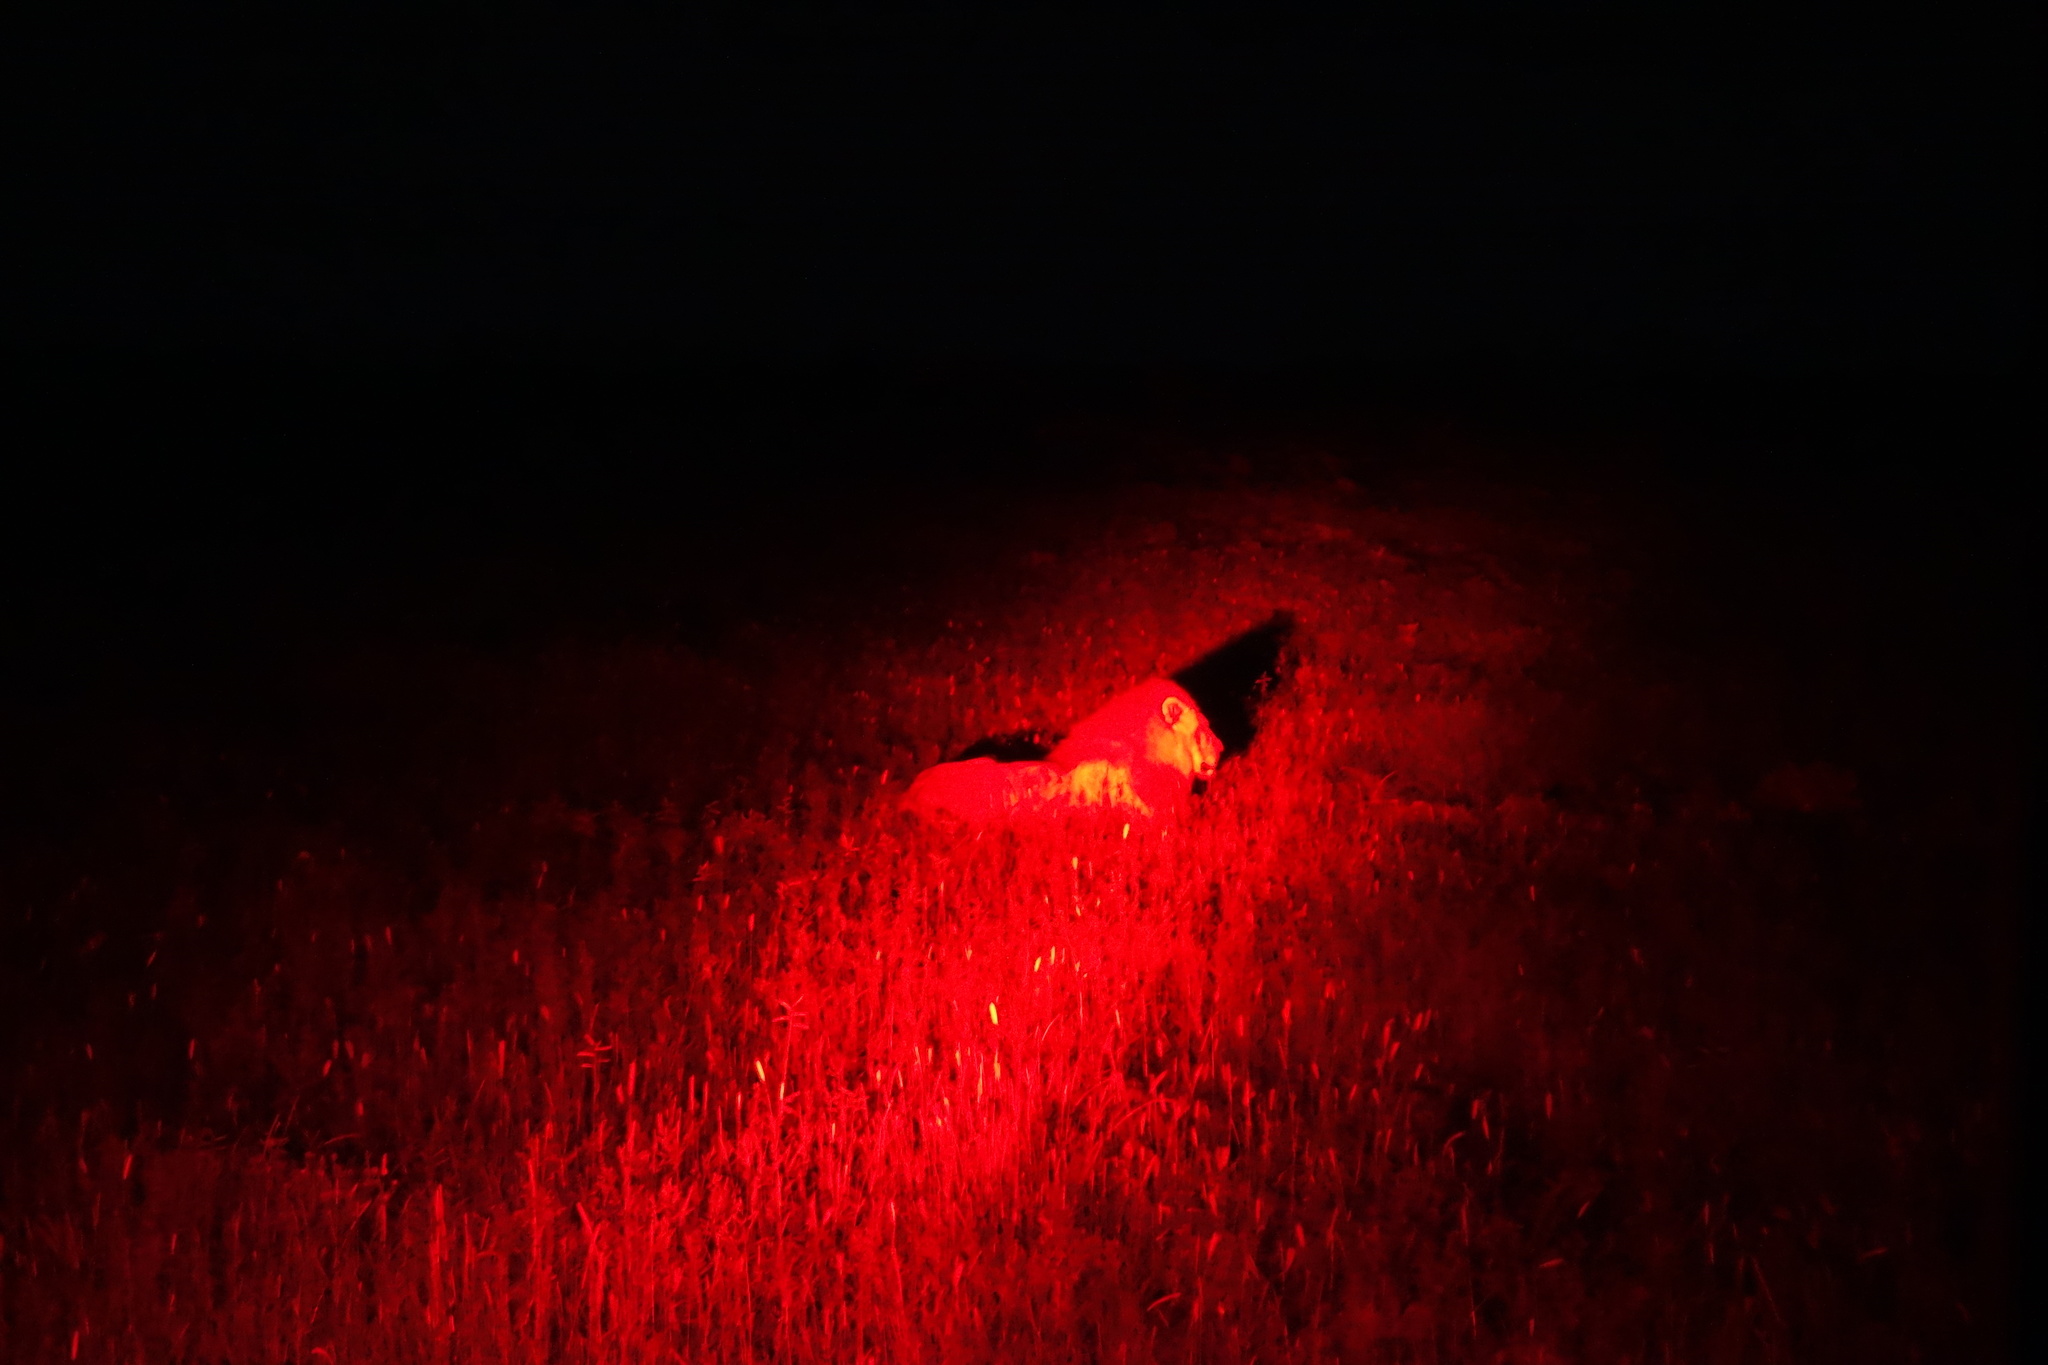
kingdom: Animalia
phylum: Chordata
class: Mammalia
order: Carnivora
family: Felidae
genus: Panthera
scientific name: Panthera leo
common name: Lion
